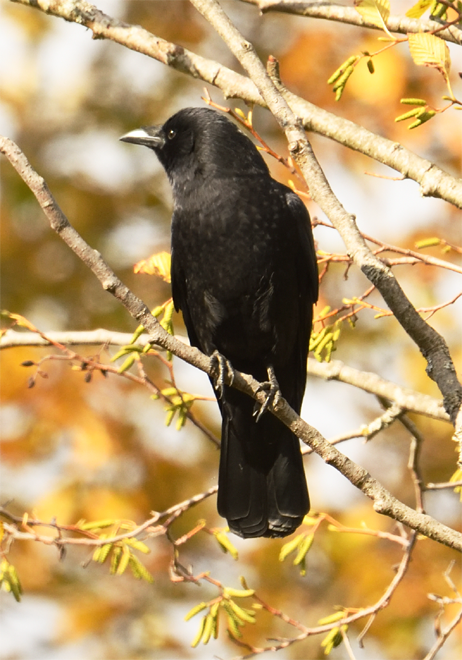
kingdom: Animalia
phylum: Chordata
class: Aves
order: Passeriformes
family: Corvidae
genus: Corvus
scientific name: Corvus brachyrhynchos
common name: American crow
